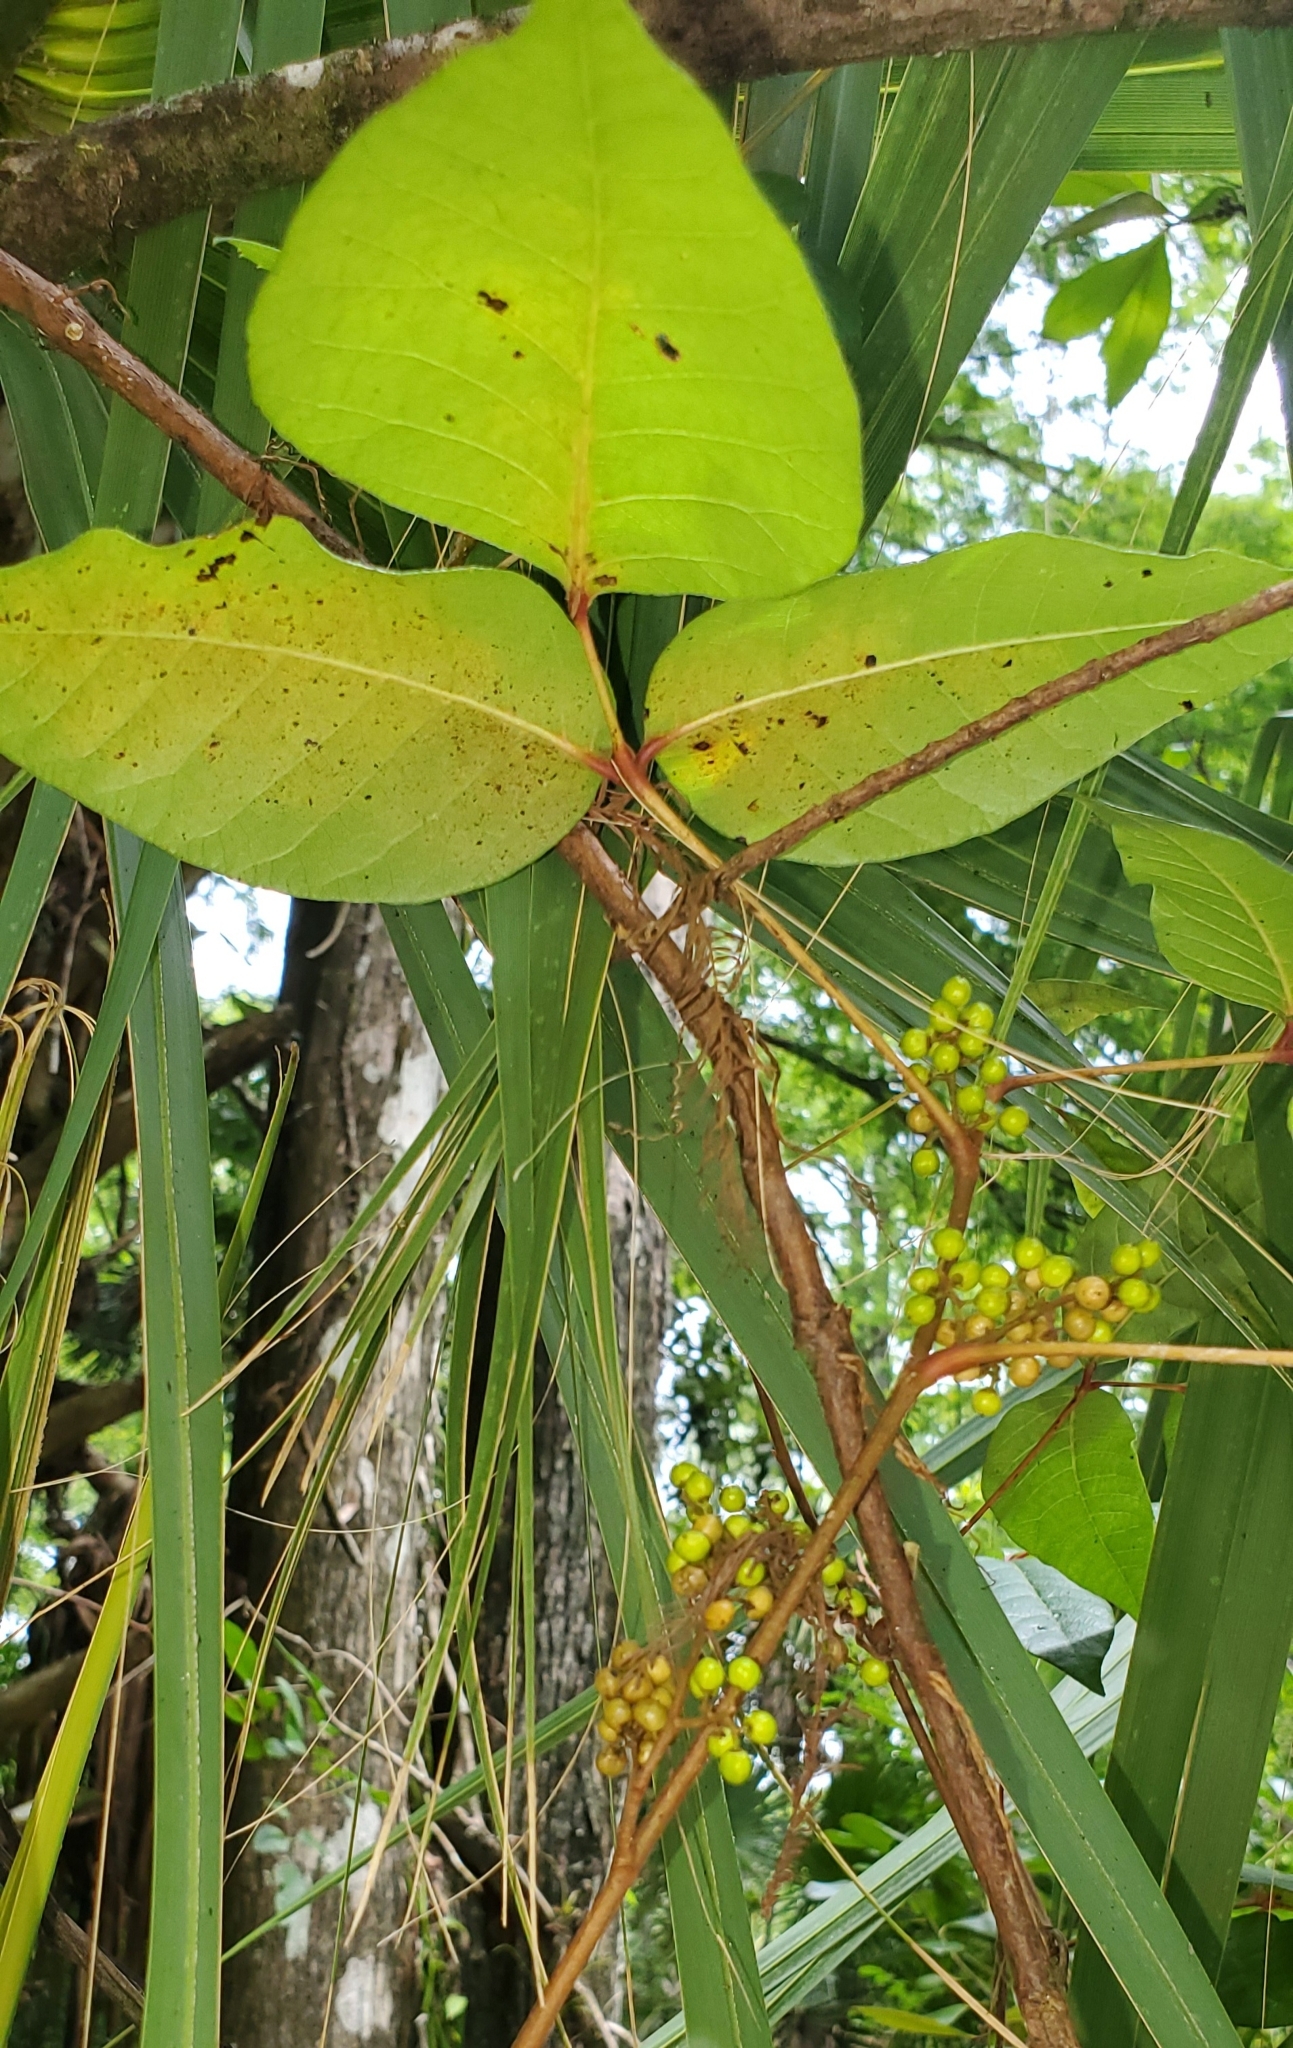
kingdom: Plantae
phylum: Tracheophyta
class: Magnoliopsida
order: Sapindales
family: Anacardiaceae
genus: Toxicodendron
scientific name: Toxicodendron radicans
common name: Poison ivy
